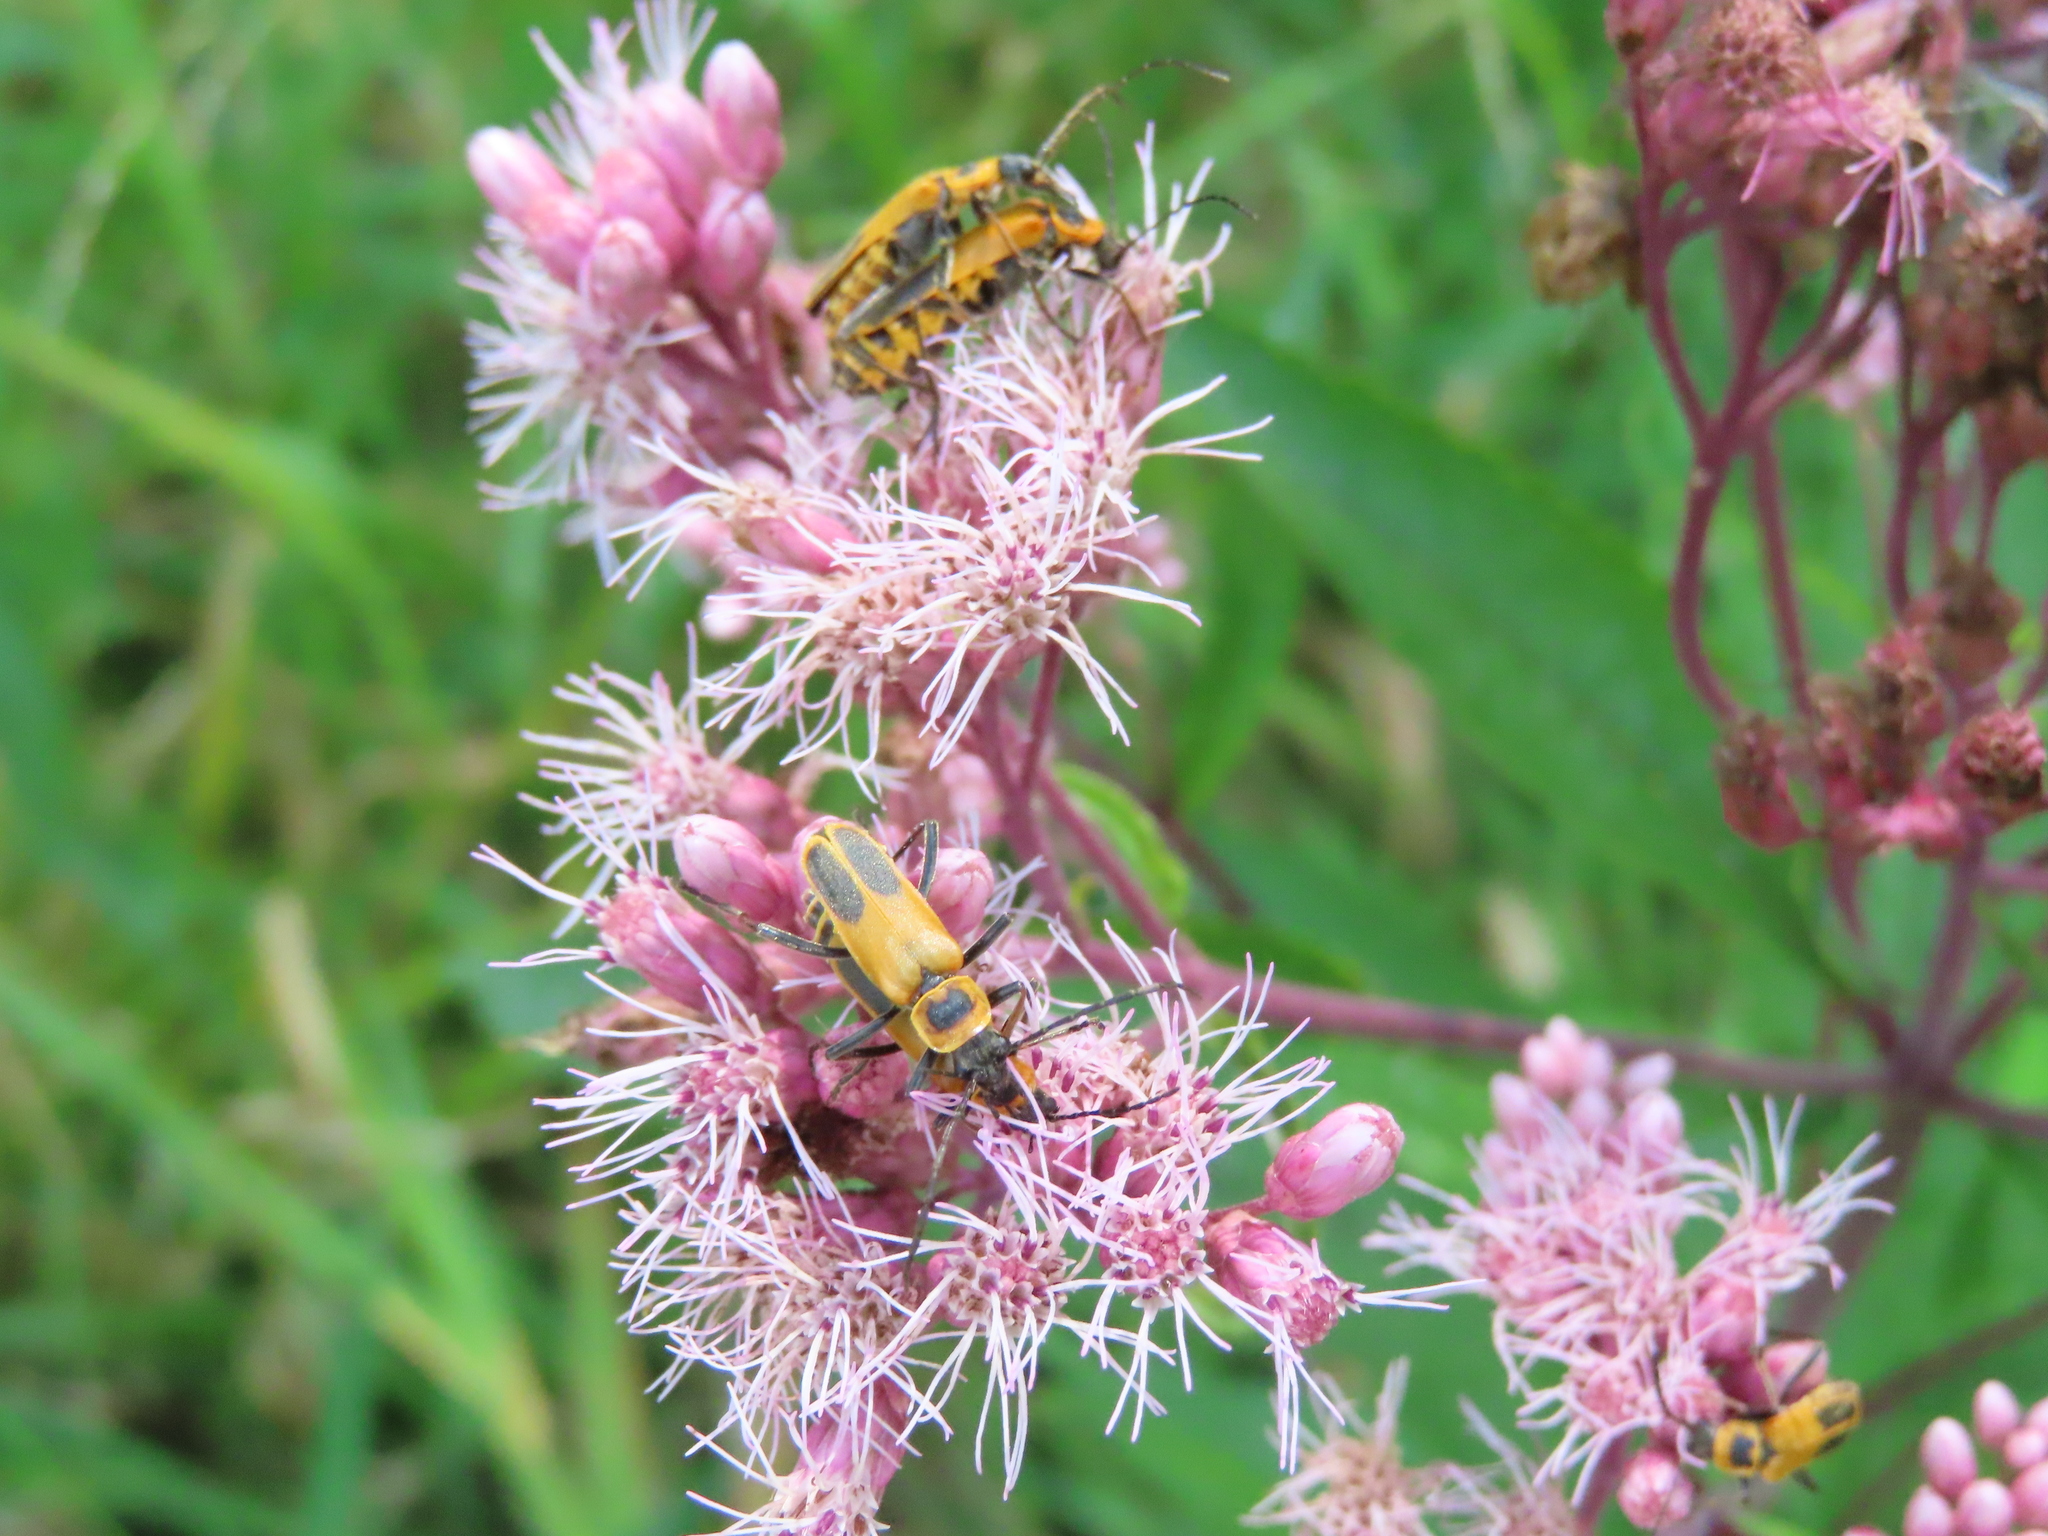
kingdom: Animalia
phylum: Arthropoda
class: Insecta
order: Coleoptera
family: Cantharidae
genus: Chauliognathus
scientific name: Chauliognathus pensylvanicus
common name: Goldenrod soldier beetle
